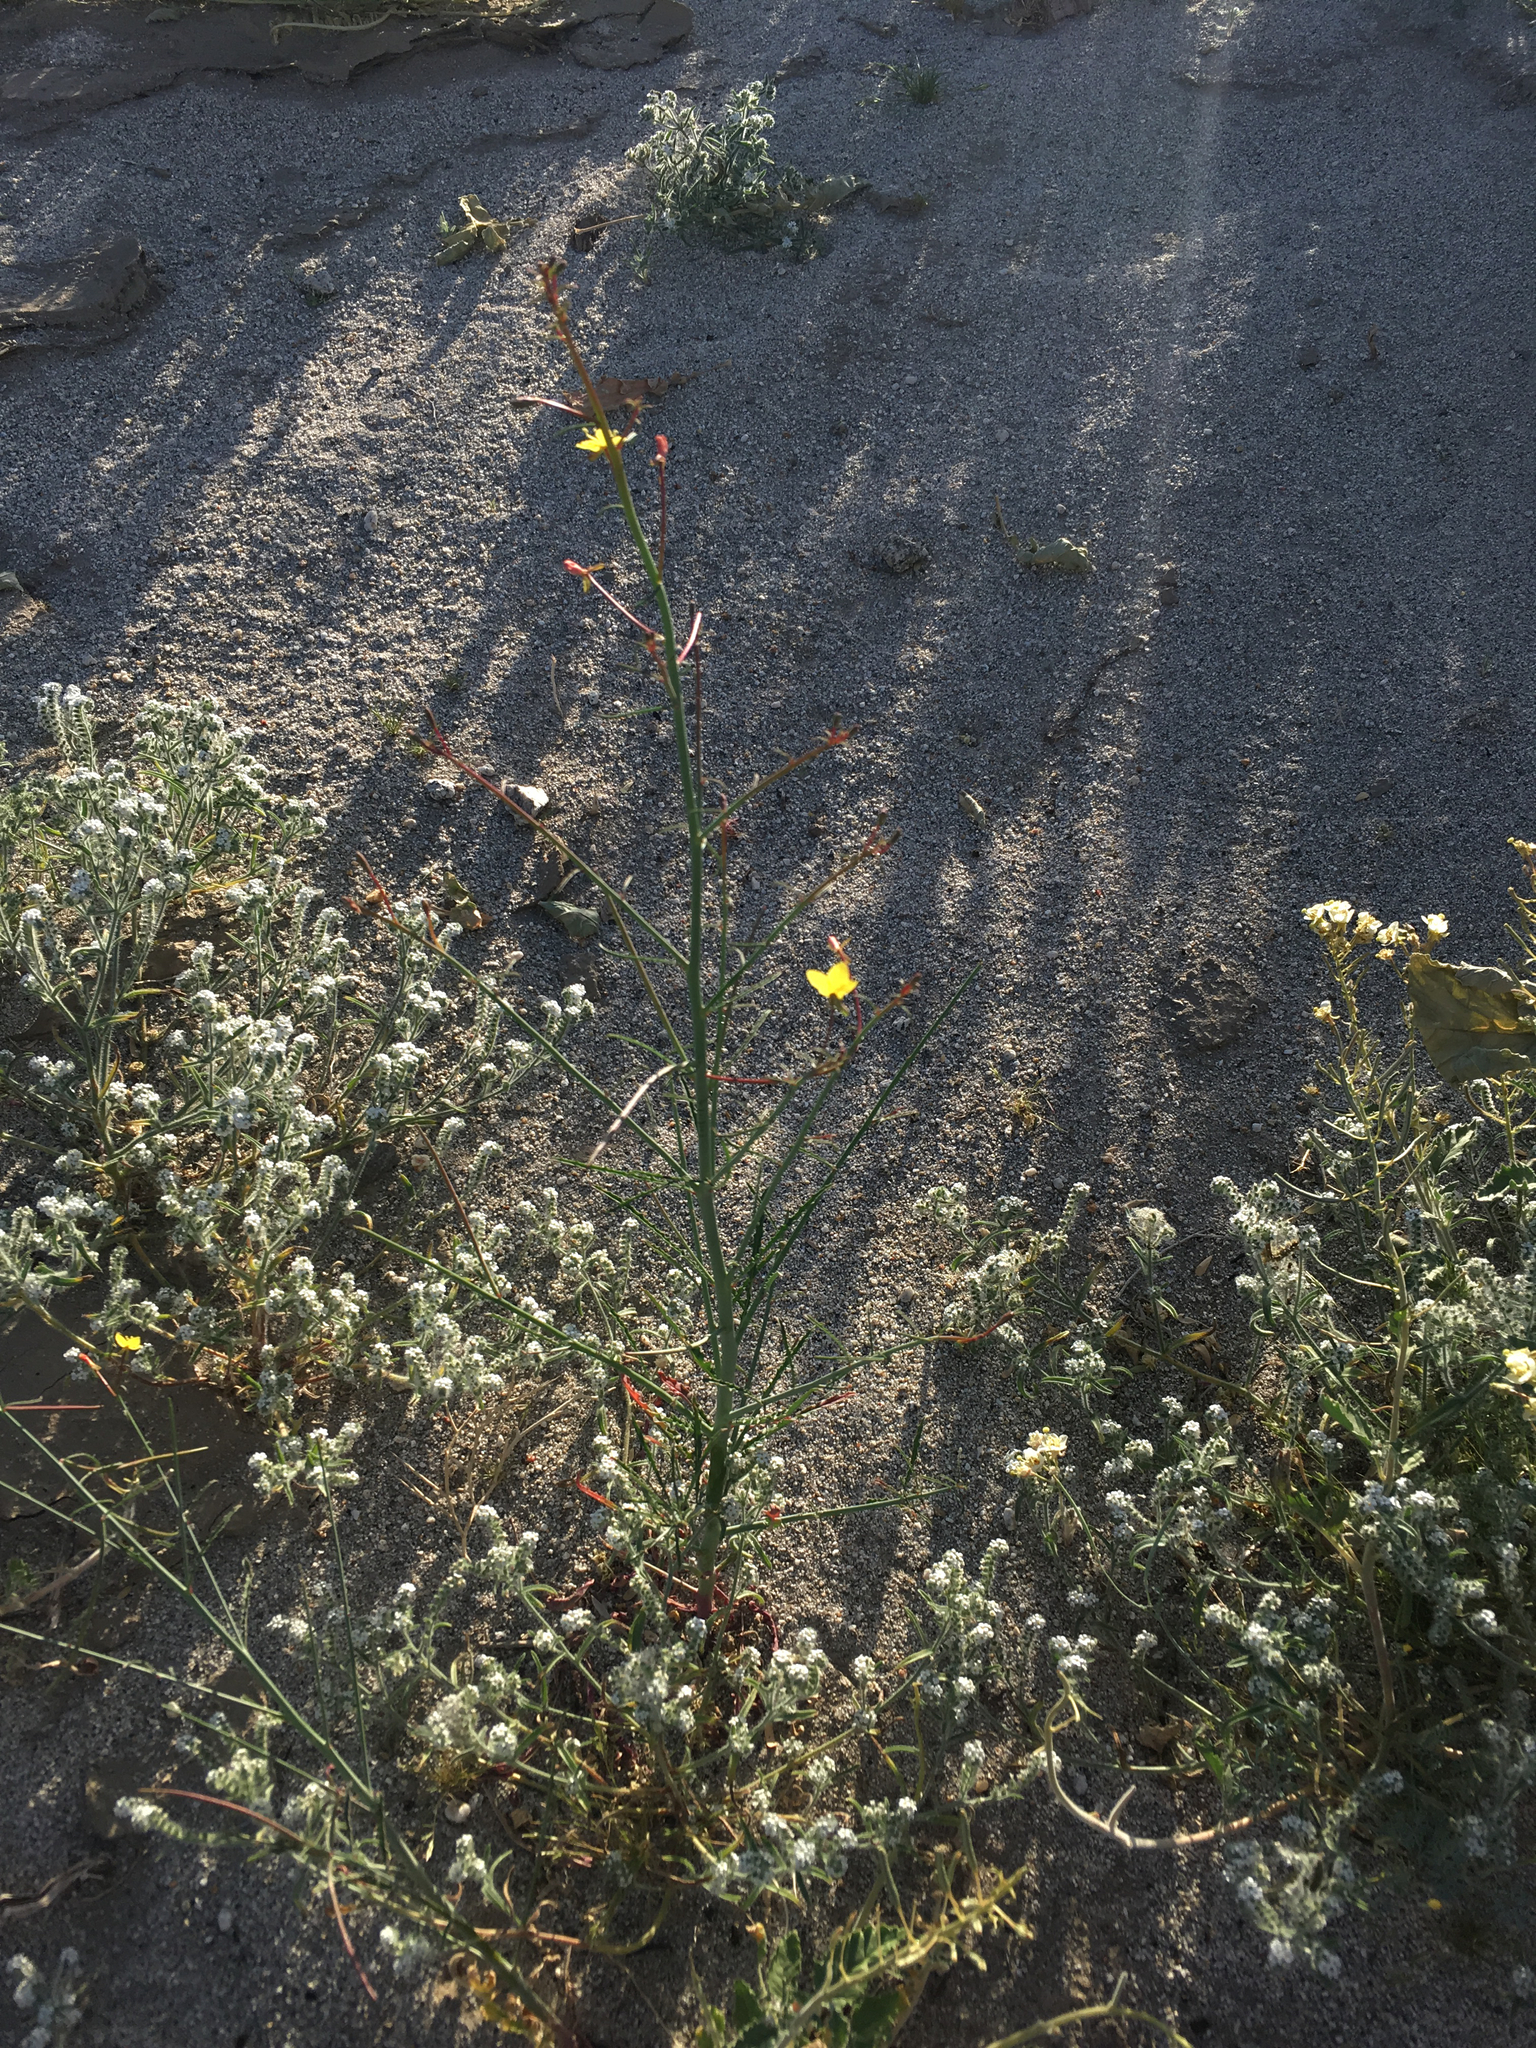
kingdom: Plantae
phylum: Tracheophyta
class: Magnoliopsida
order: Myrtales
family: Onagraceae
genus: Eulobus
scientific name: Eulobus californicus
